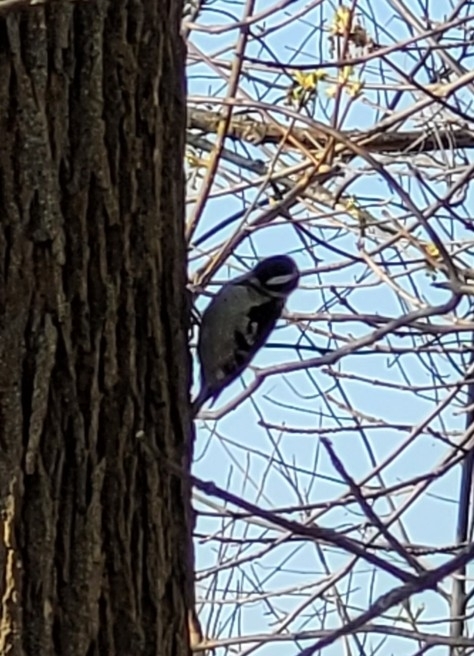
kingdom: Animalia
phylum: Chordata
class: Aves
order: Piciformes
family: Picidae
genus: Dryobates
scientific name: Dryobates pubescens
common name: Downy woodpecker
